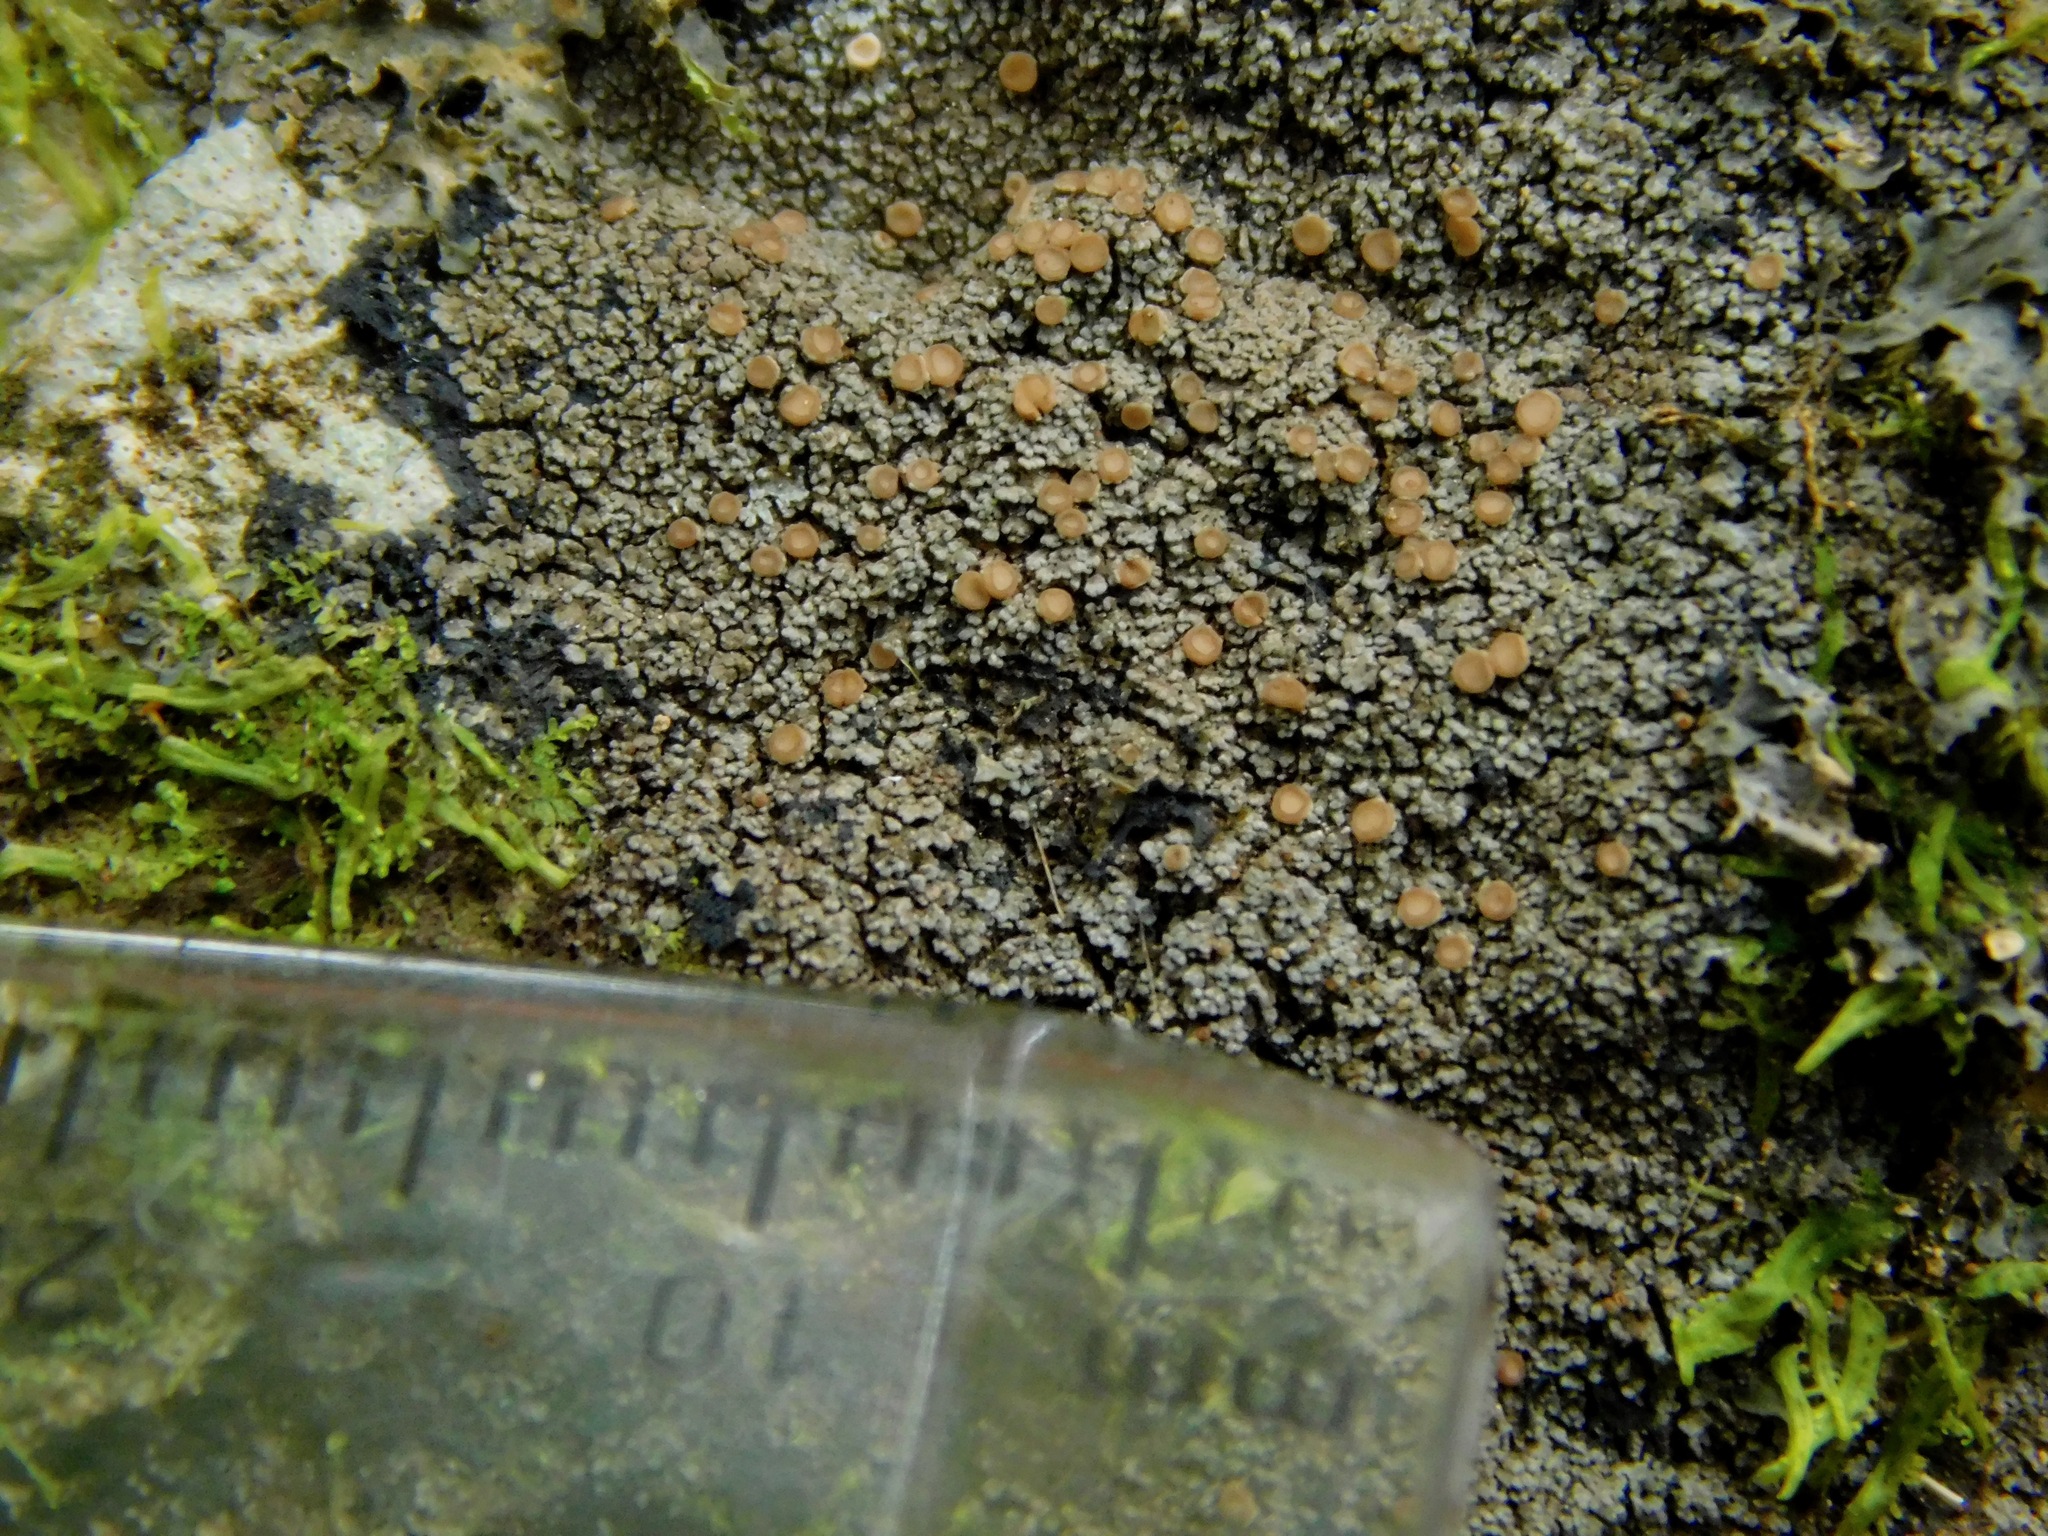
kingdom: Fungi
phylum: Ascomycota
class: Lecanoromycetes
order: Peltigerales
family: Vahliellaceae
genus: Vahliella
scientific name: Vahliella leucophaea
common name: Rock shingle lichen
